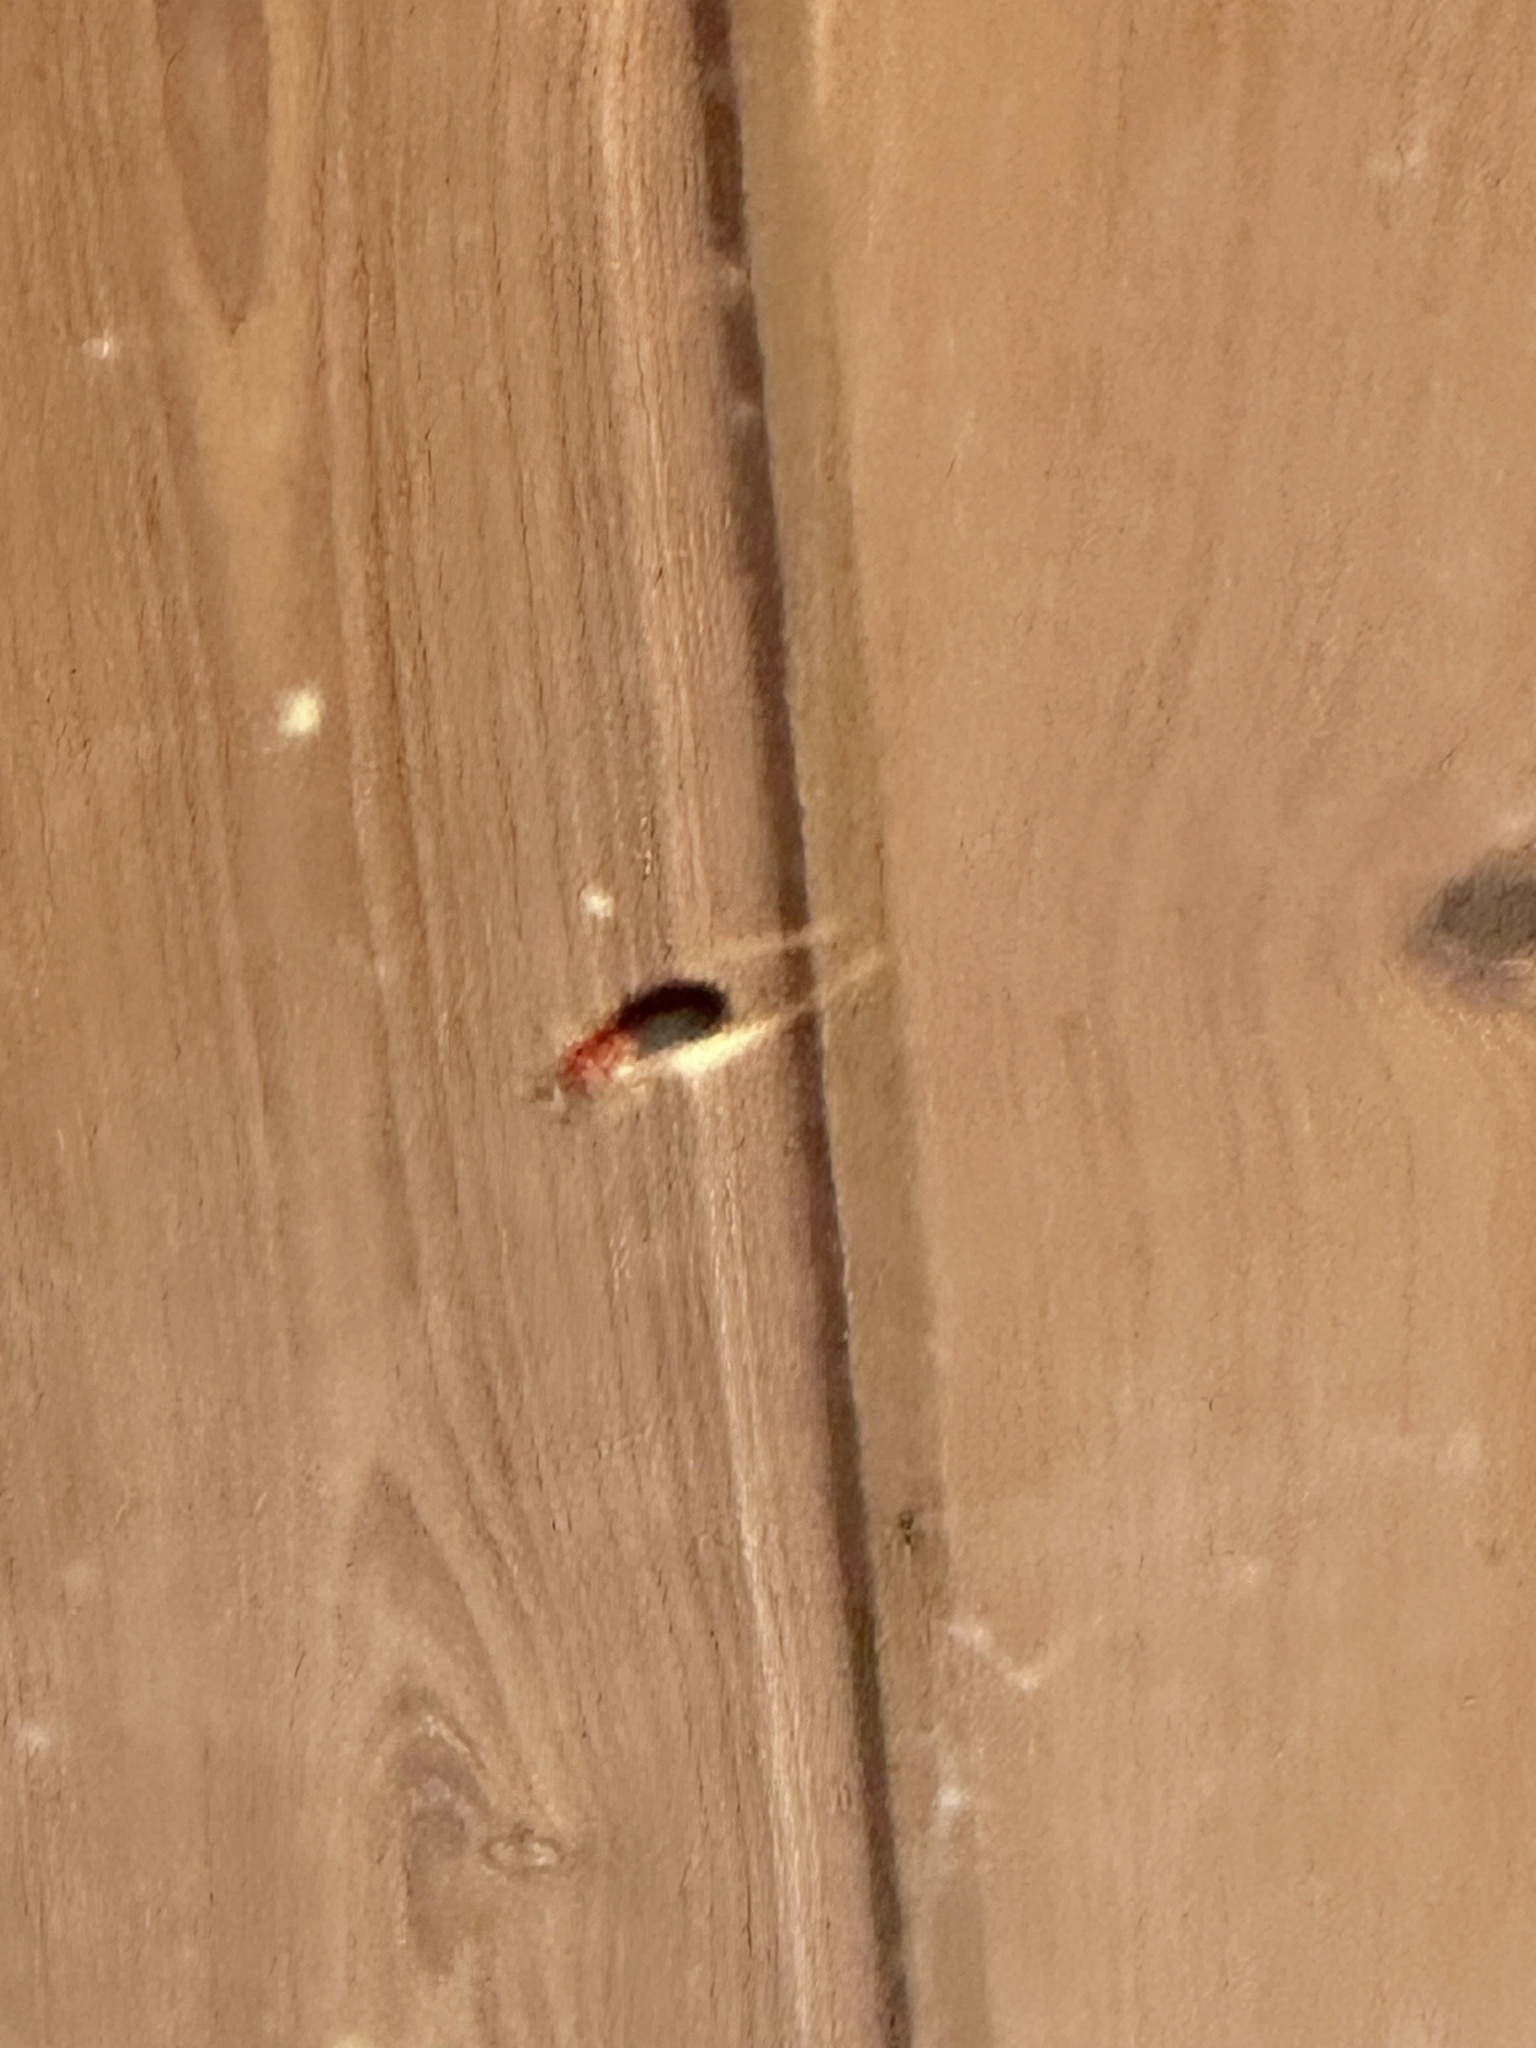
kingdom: Animalia
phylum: Arthropoda
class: Insecta
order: Orthoptera
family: Trigonidiidae
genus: Phyllopalpus
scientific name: Phyllopalpus pulchellus
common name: Handsome trig
